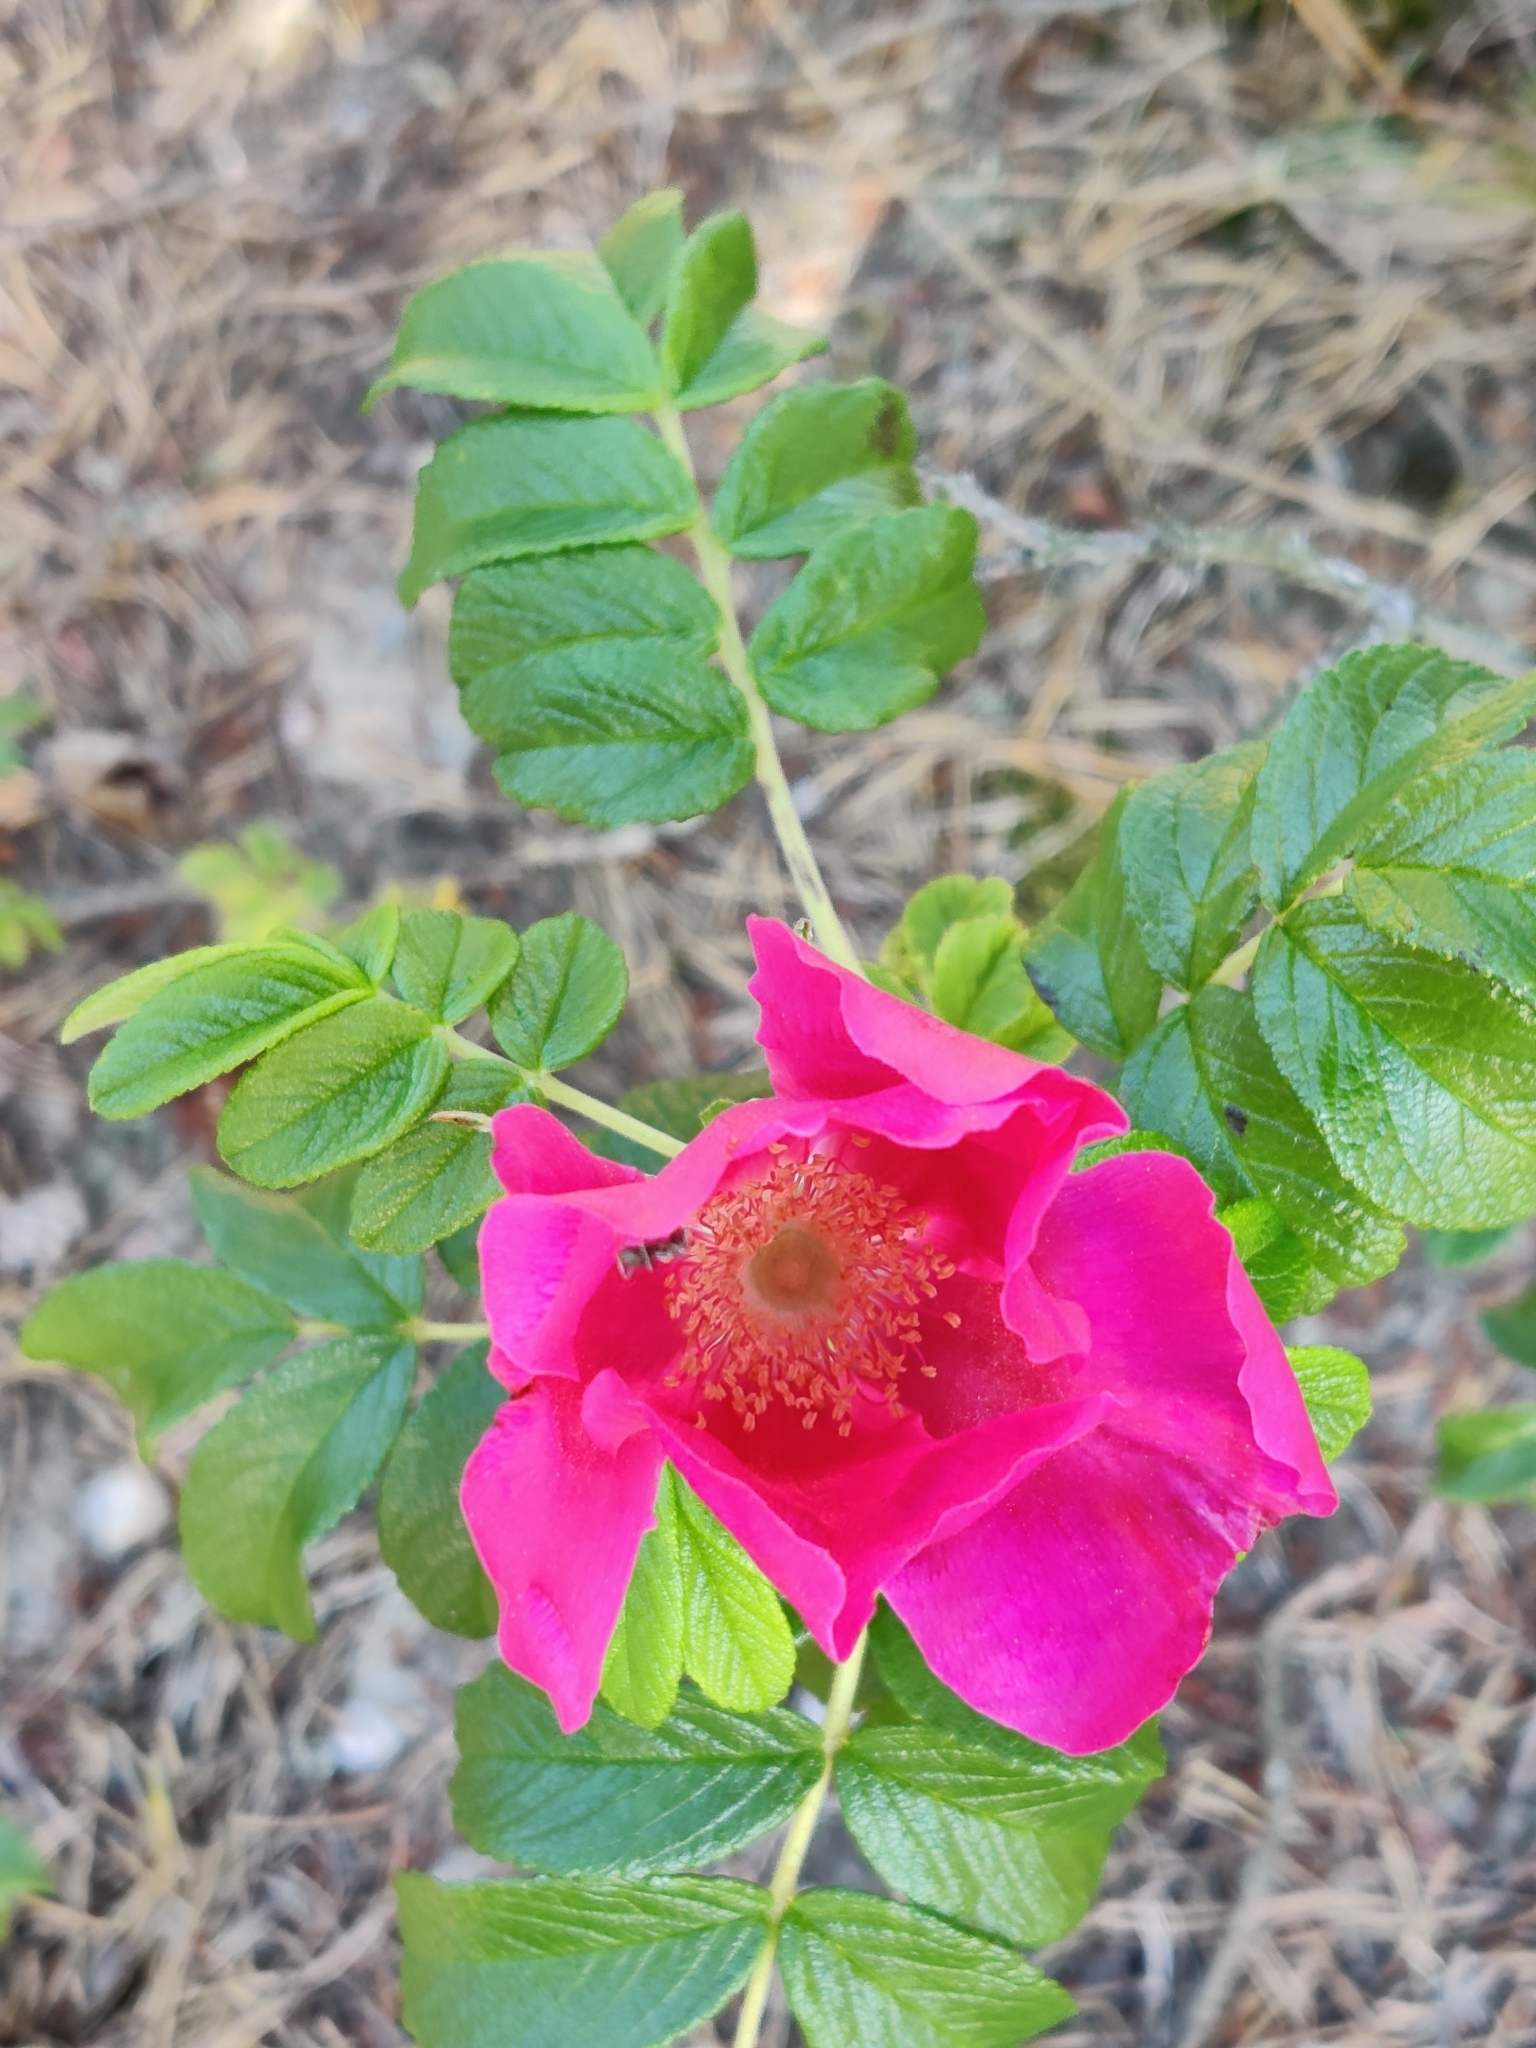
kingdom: Plantae
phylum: Tracheophyta
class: Magnoliopsida
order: Rosales
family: Rosaceae
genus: Rosa
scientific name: Rosa rugosa
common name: Japanese rose
